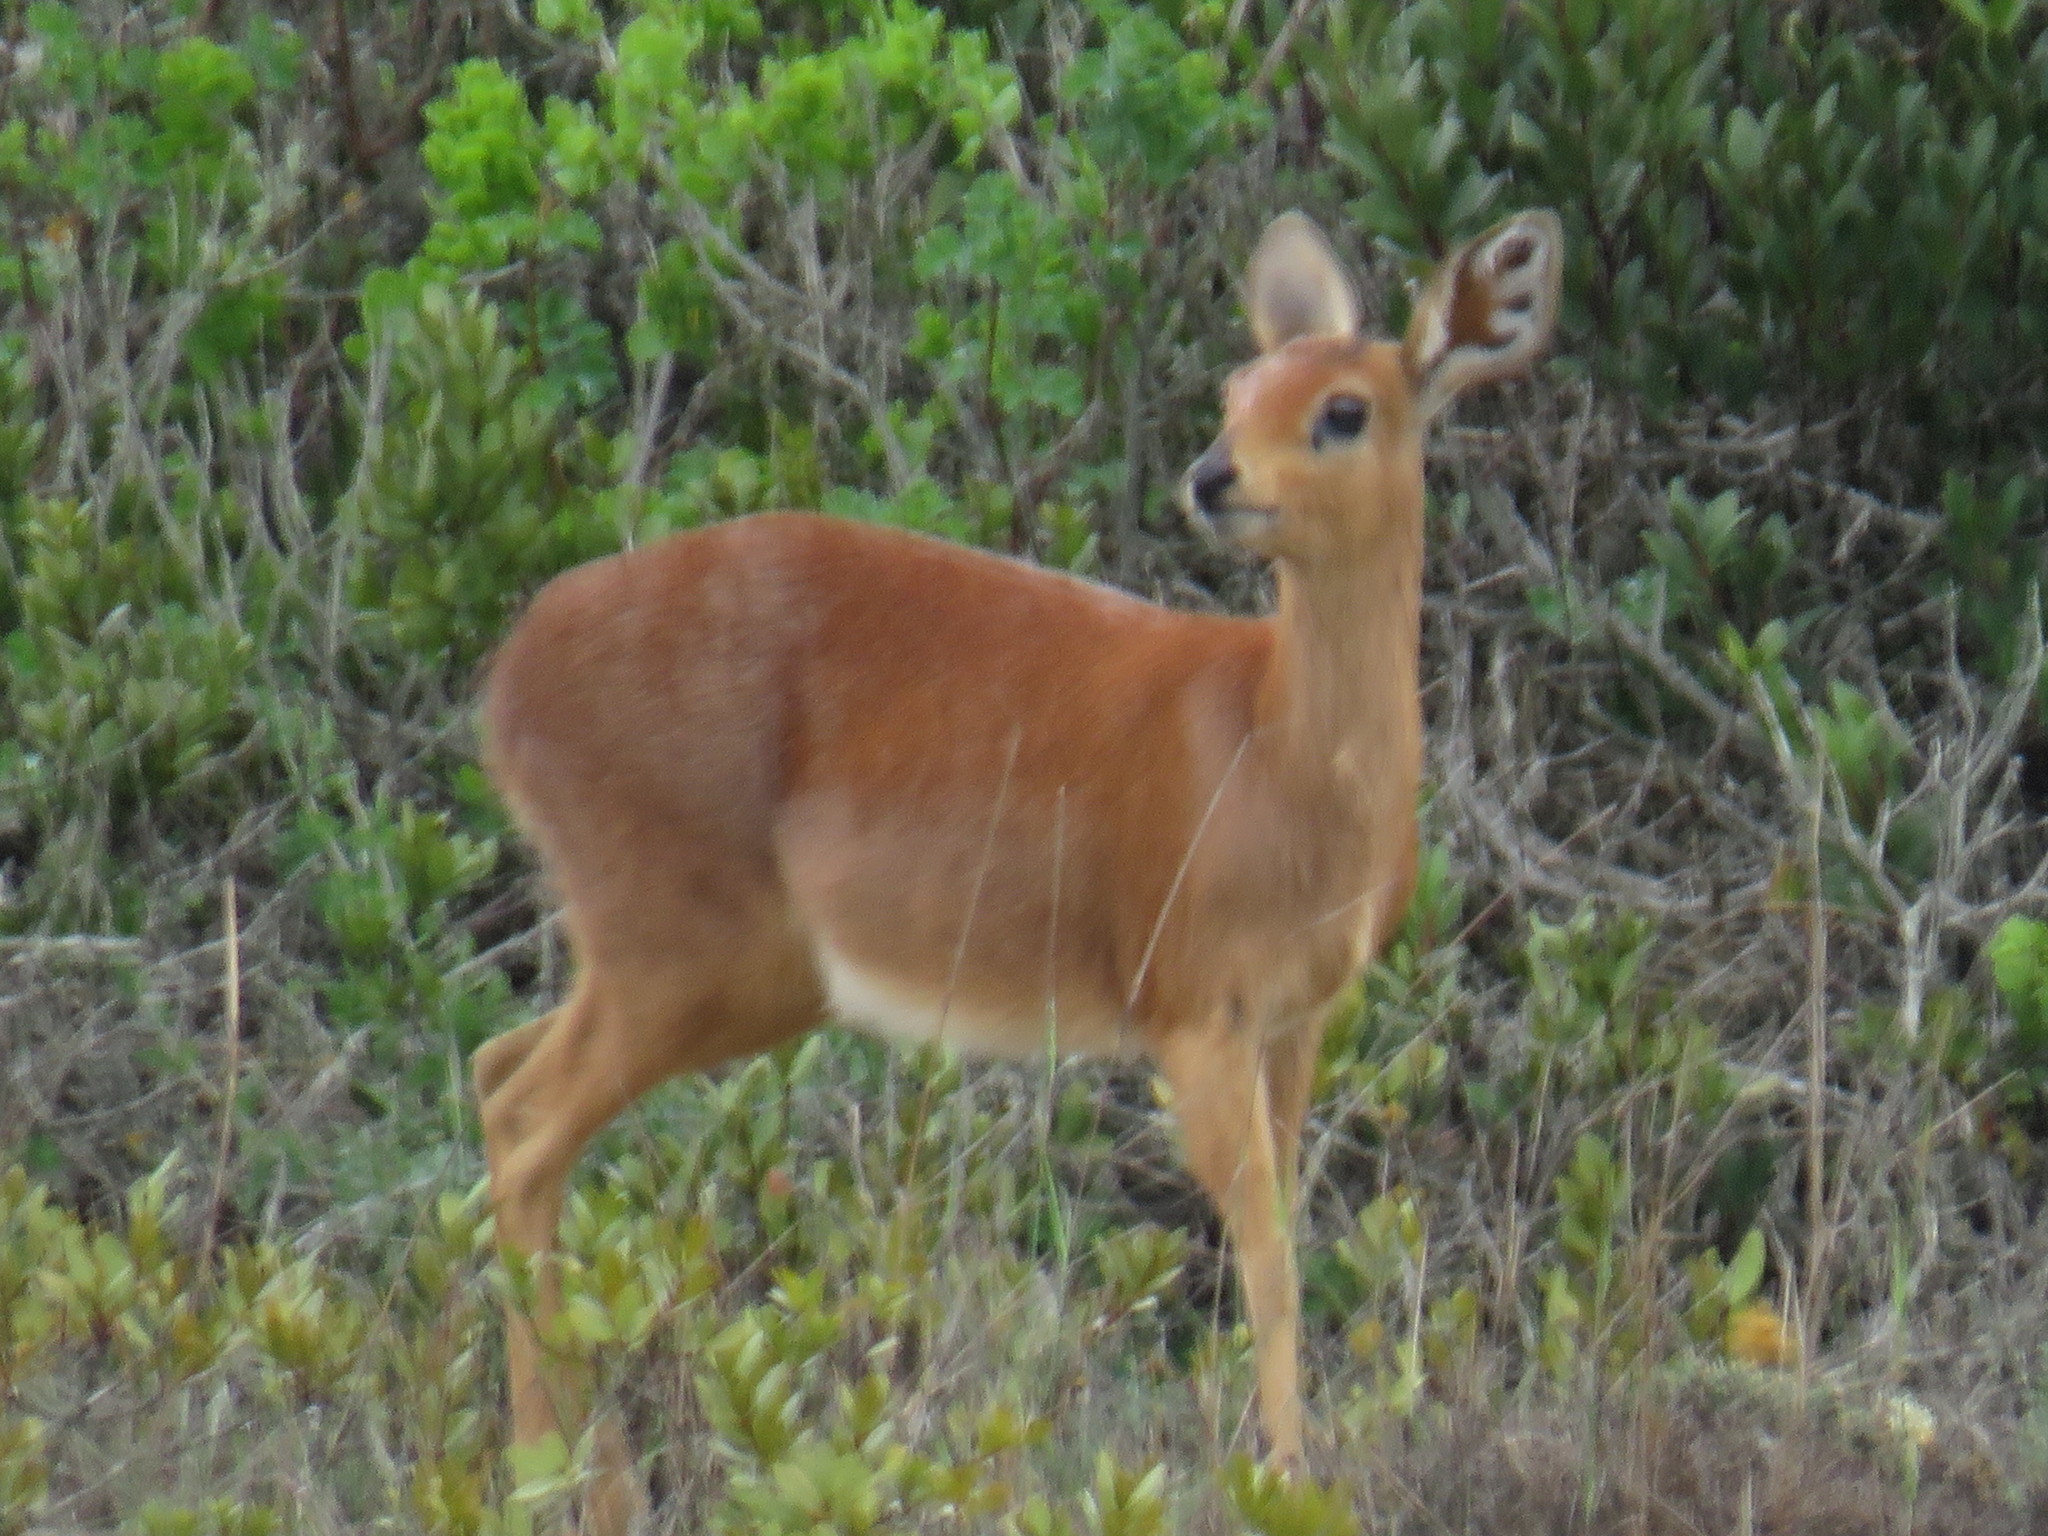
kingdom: Animalia
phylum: Chordata
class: Mammalia
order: Artiodactyla
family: Bovidae
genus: Raphicerus
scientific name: Raphicerus campestris
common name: Steenbok
